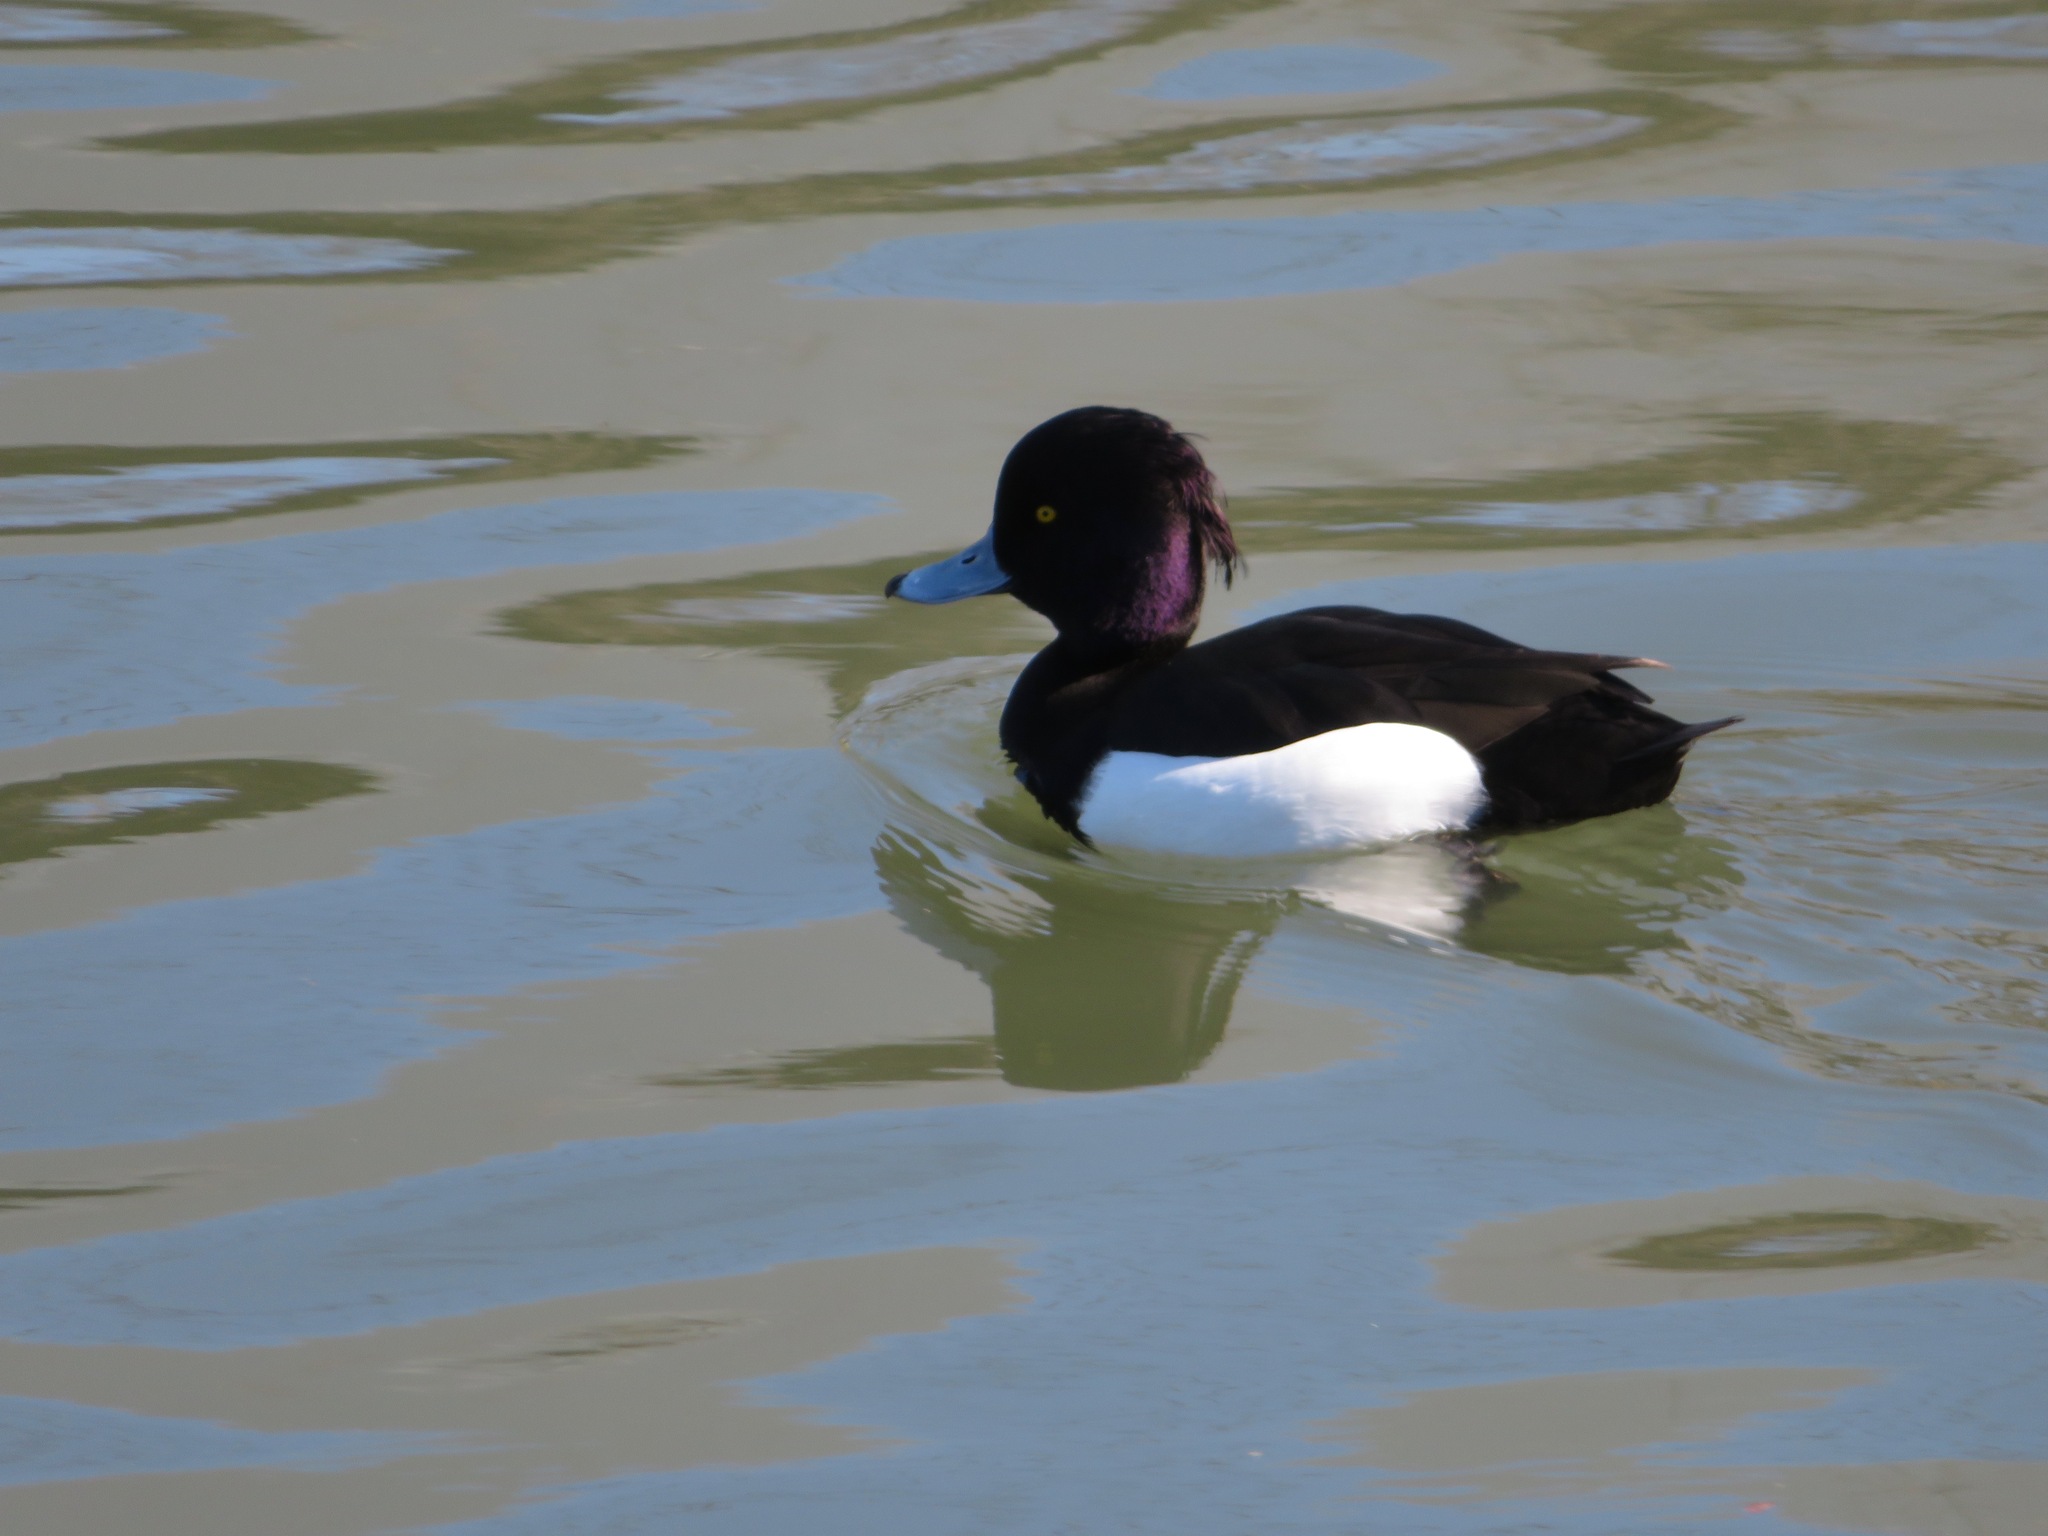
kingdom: Animalia
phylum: Chordata
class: Aves
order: Anseriformes
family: Anatidae
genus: Aythya
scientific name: Aythya fuligula
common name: Tufted duck
